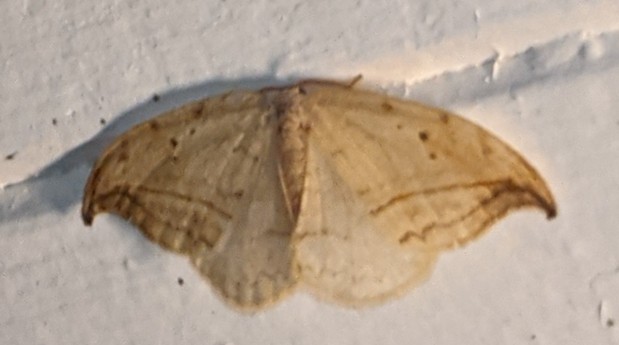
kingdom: Animalia
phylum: Arthropoda
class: Insecta
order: Lepidoptera
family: Drepanidae
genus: Drepana
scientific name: Drepana arcuata
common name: Arched hooktip moth
